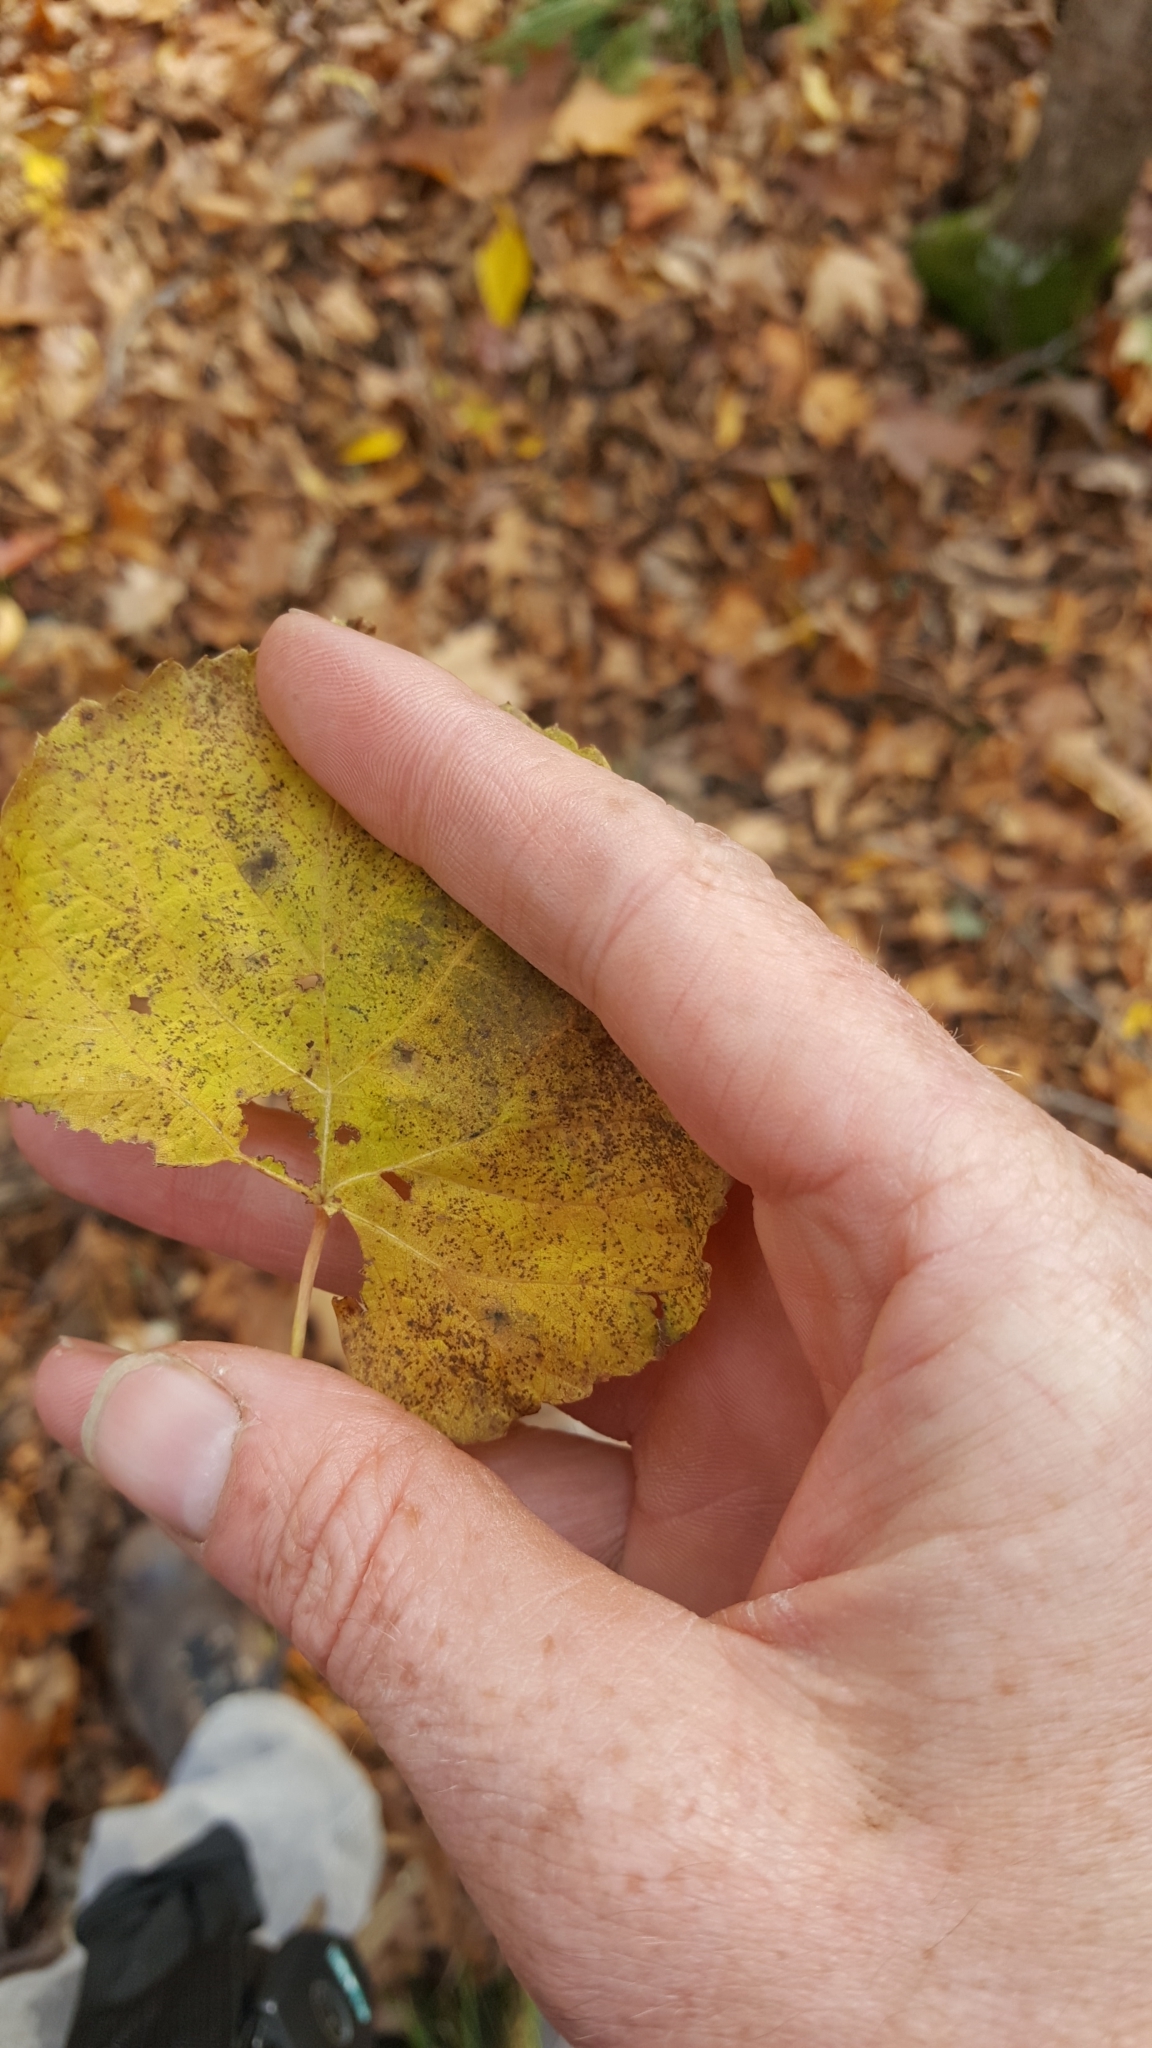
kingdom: Plantae
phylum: Tracheophyta
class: Magnoliopsida
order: Malvales
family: Malvaceae
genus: Tilia
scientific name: Tilia americana
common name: Basswood
